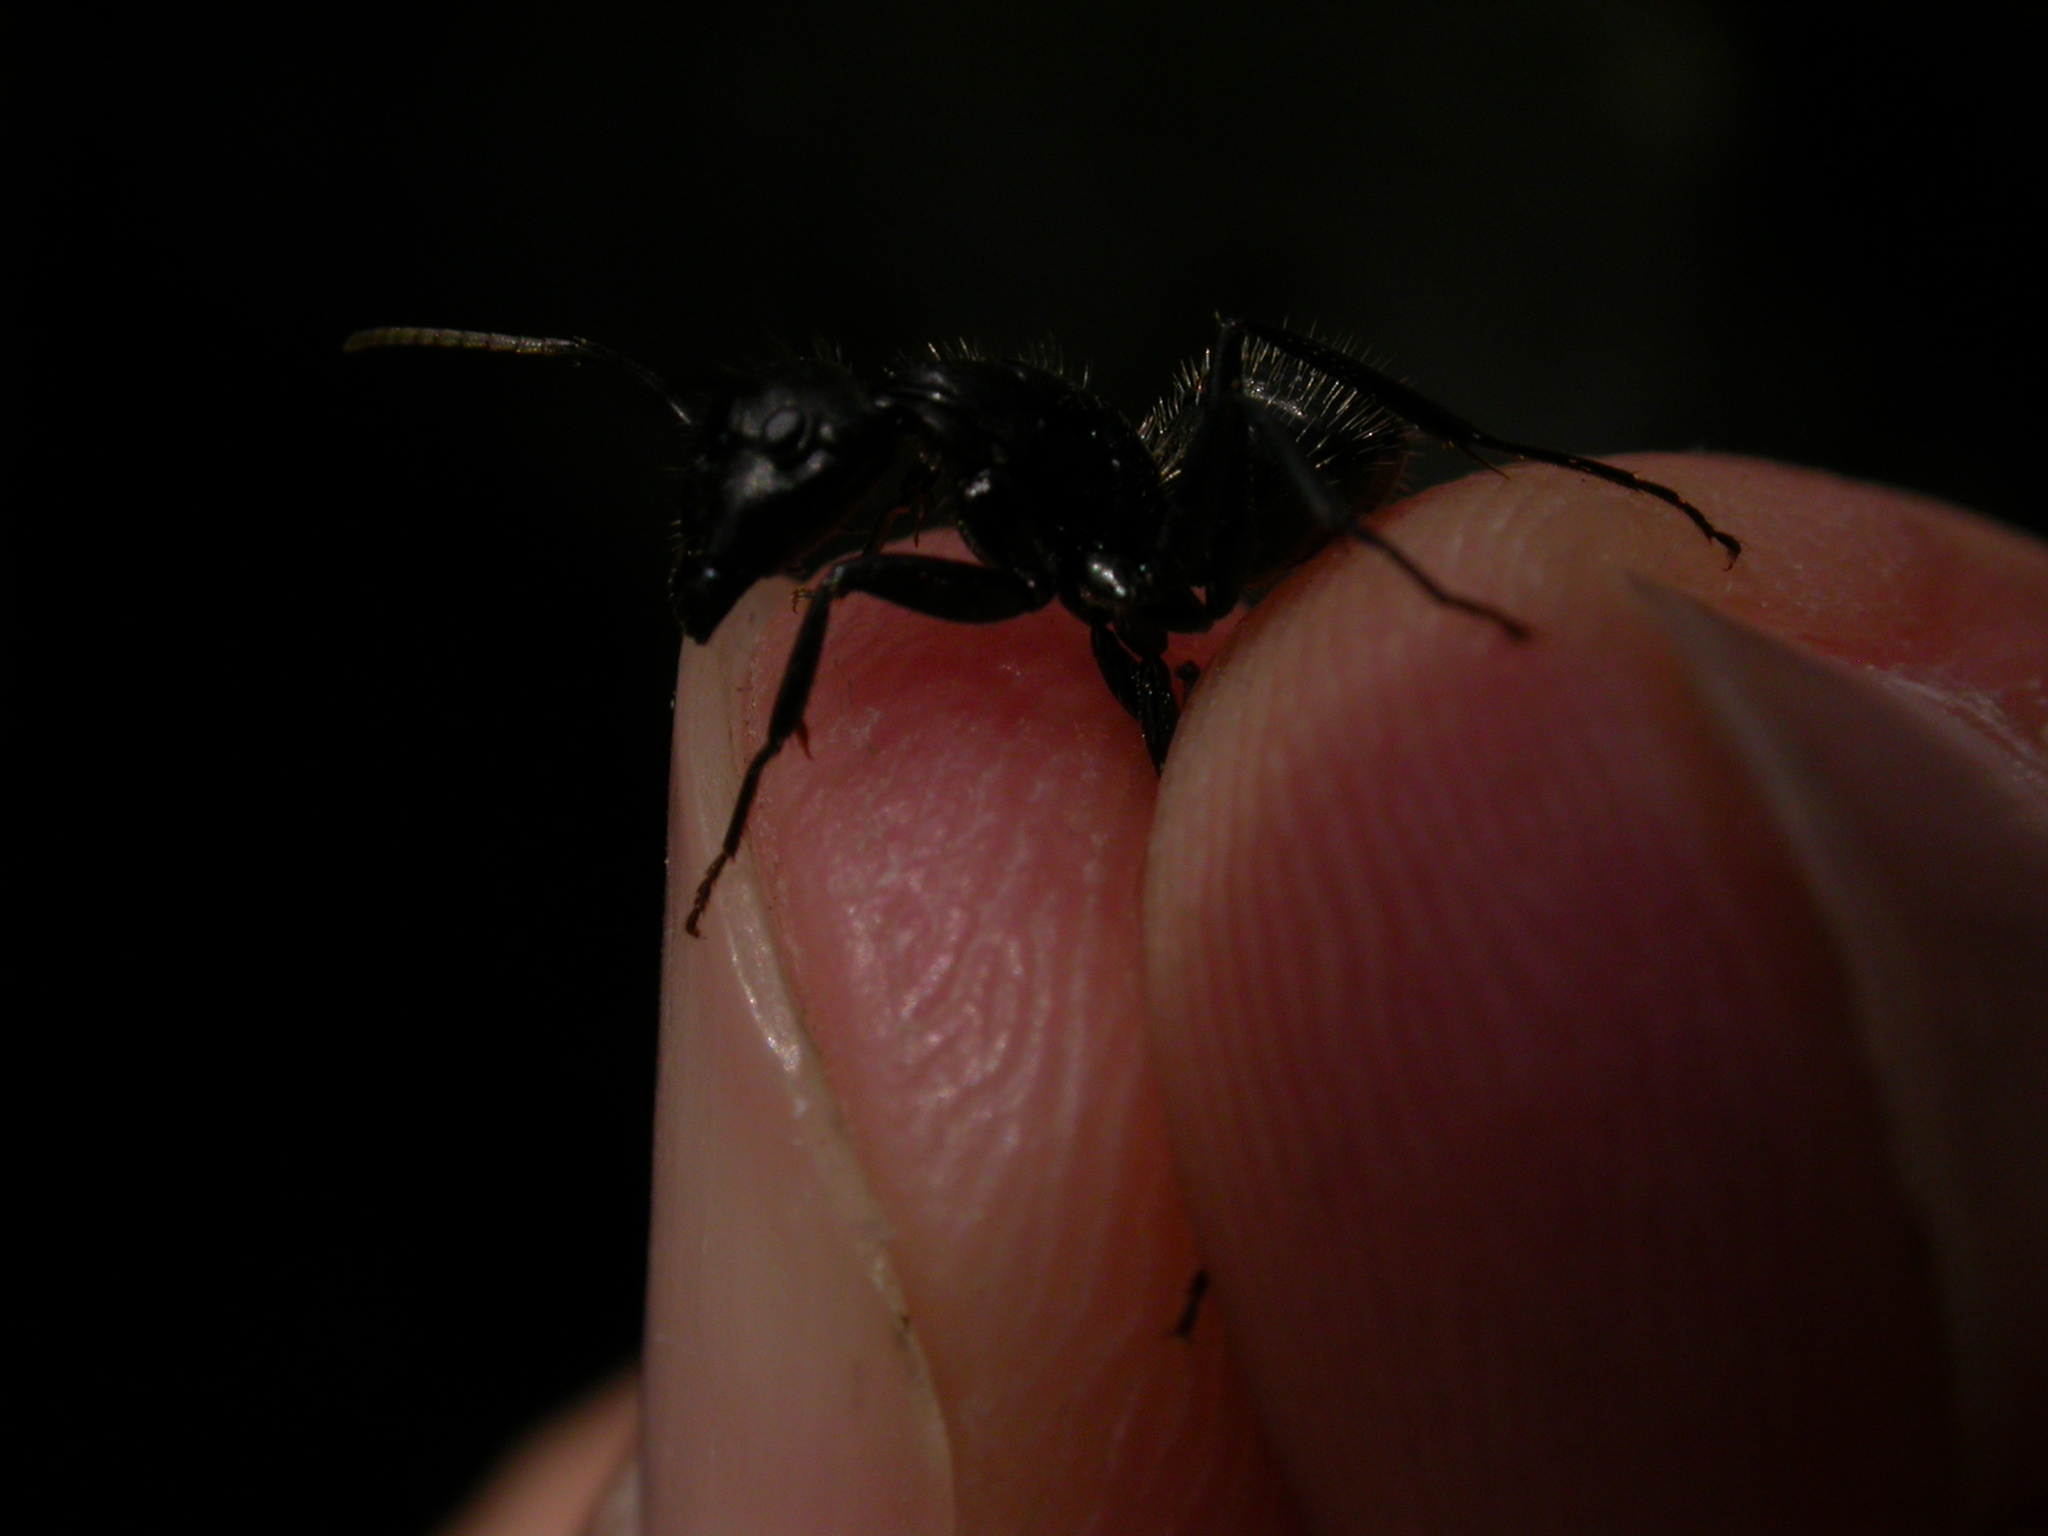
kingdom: Animalia
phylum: Arthropoda
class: Insecta
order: Hymenoptera
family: Formicidae
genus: Camponotus
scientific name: Camponotus vagus
